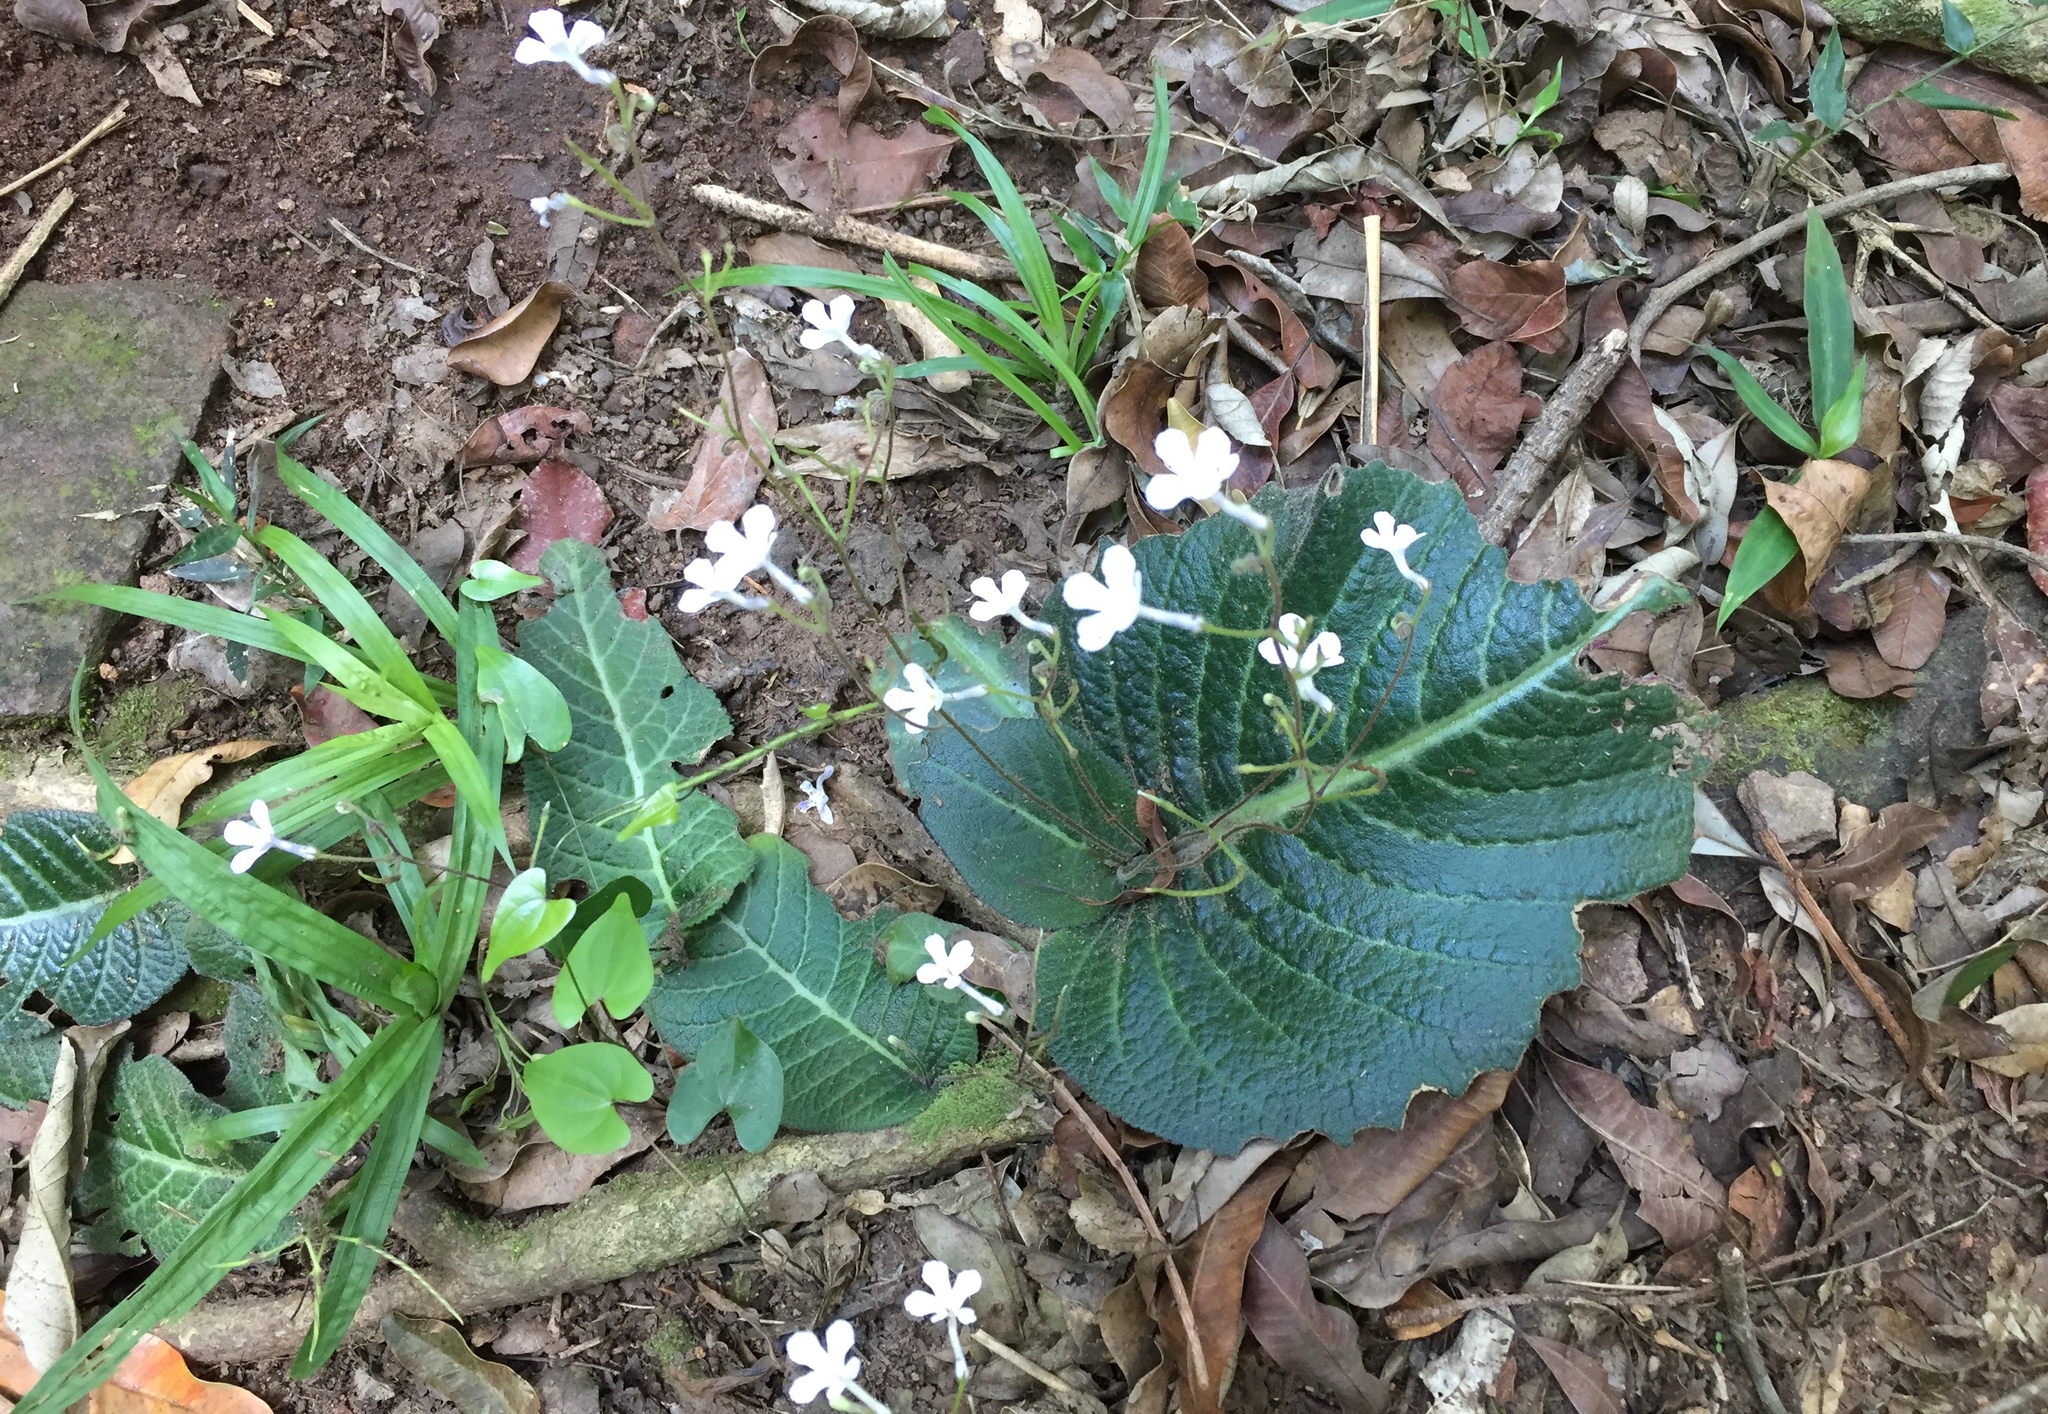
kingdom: Plantae
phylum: Tracheophyta
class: Magnoliopsida
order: Lamiales
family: Gesneriaceae
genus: Streptocarpus
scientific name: Streptocarpus prolixus
